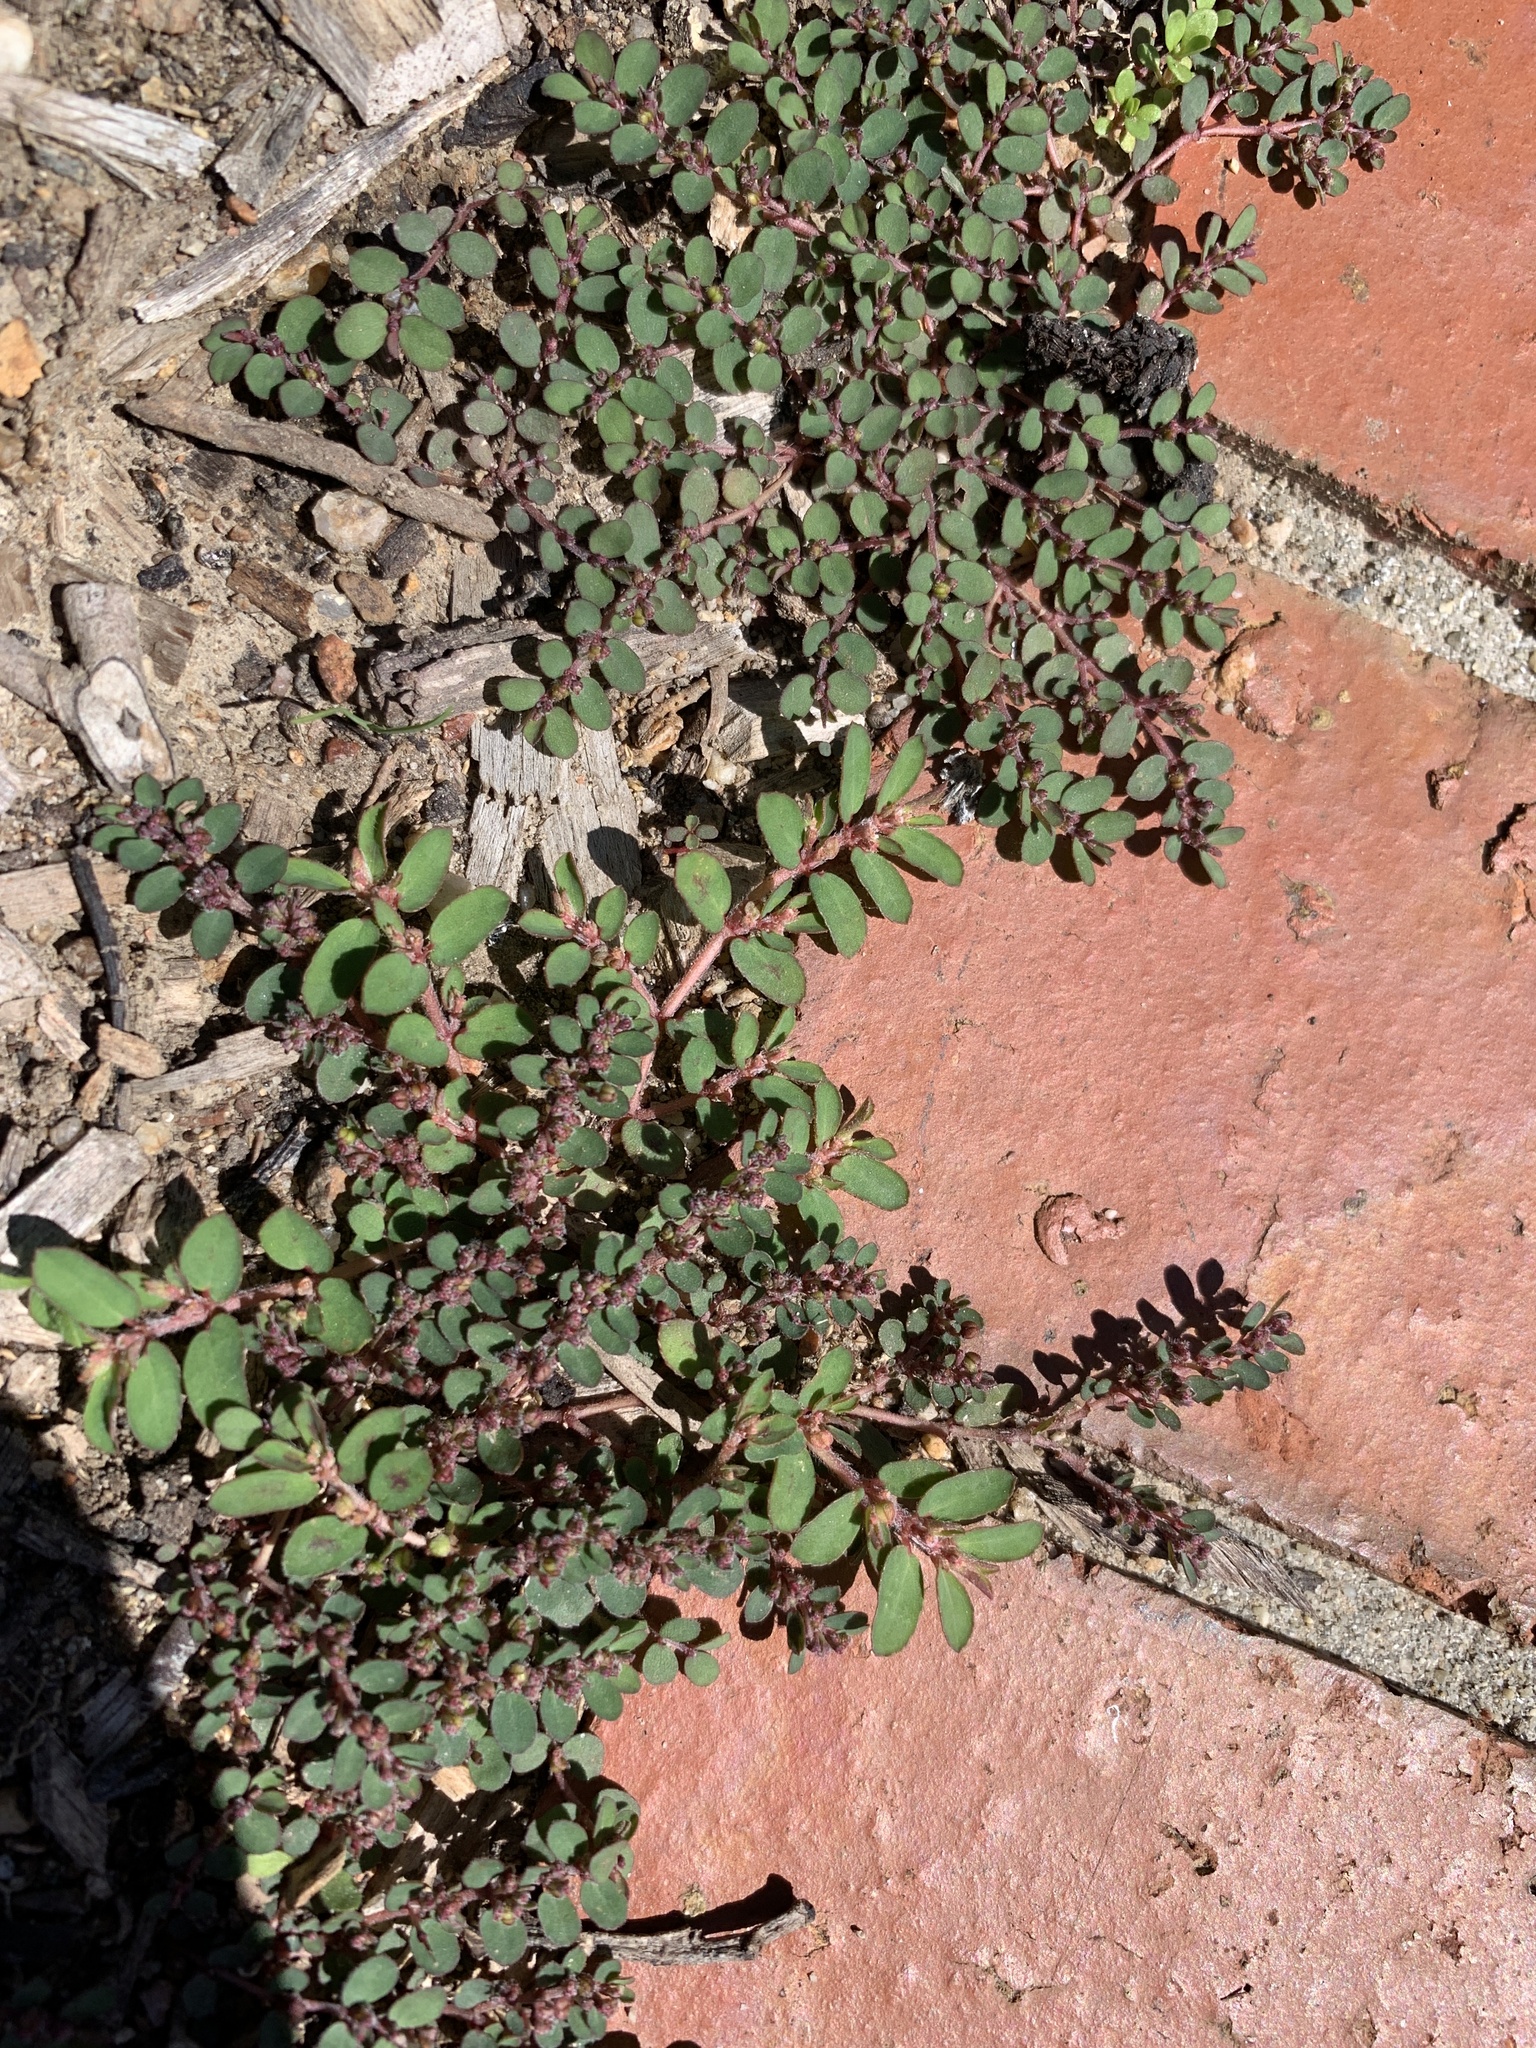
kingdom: Plantae
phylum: Tracheophyta
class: Magnoliopsida
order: Malpighiales
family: Euphorbiaceae
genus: Euphorbia
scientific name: Euphorbia prostrata
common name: Prostrate sandmat
